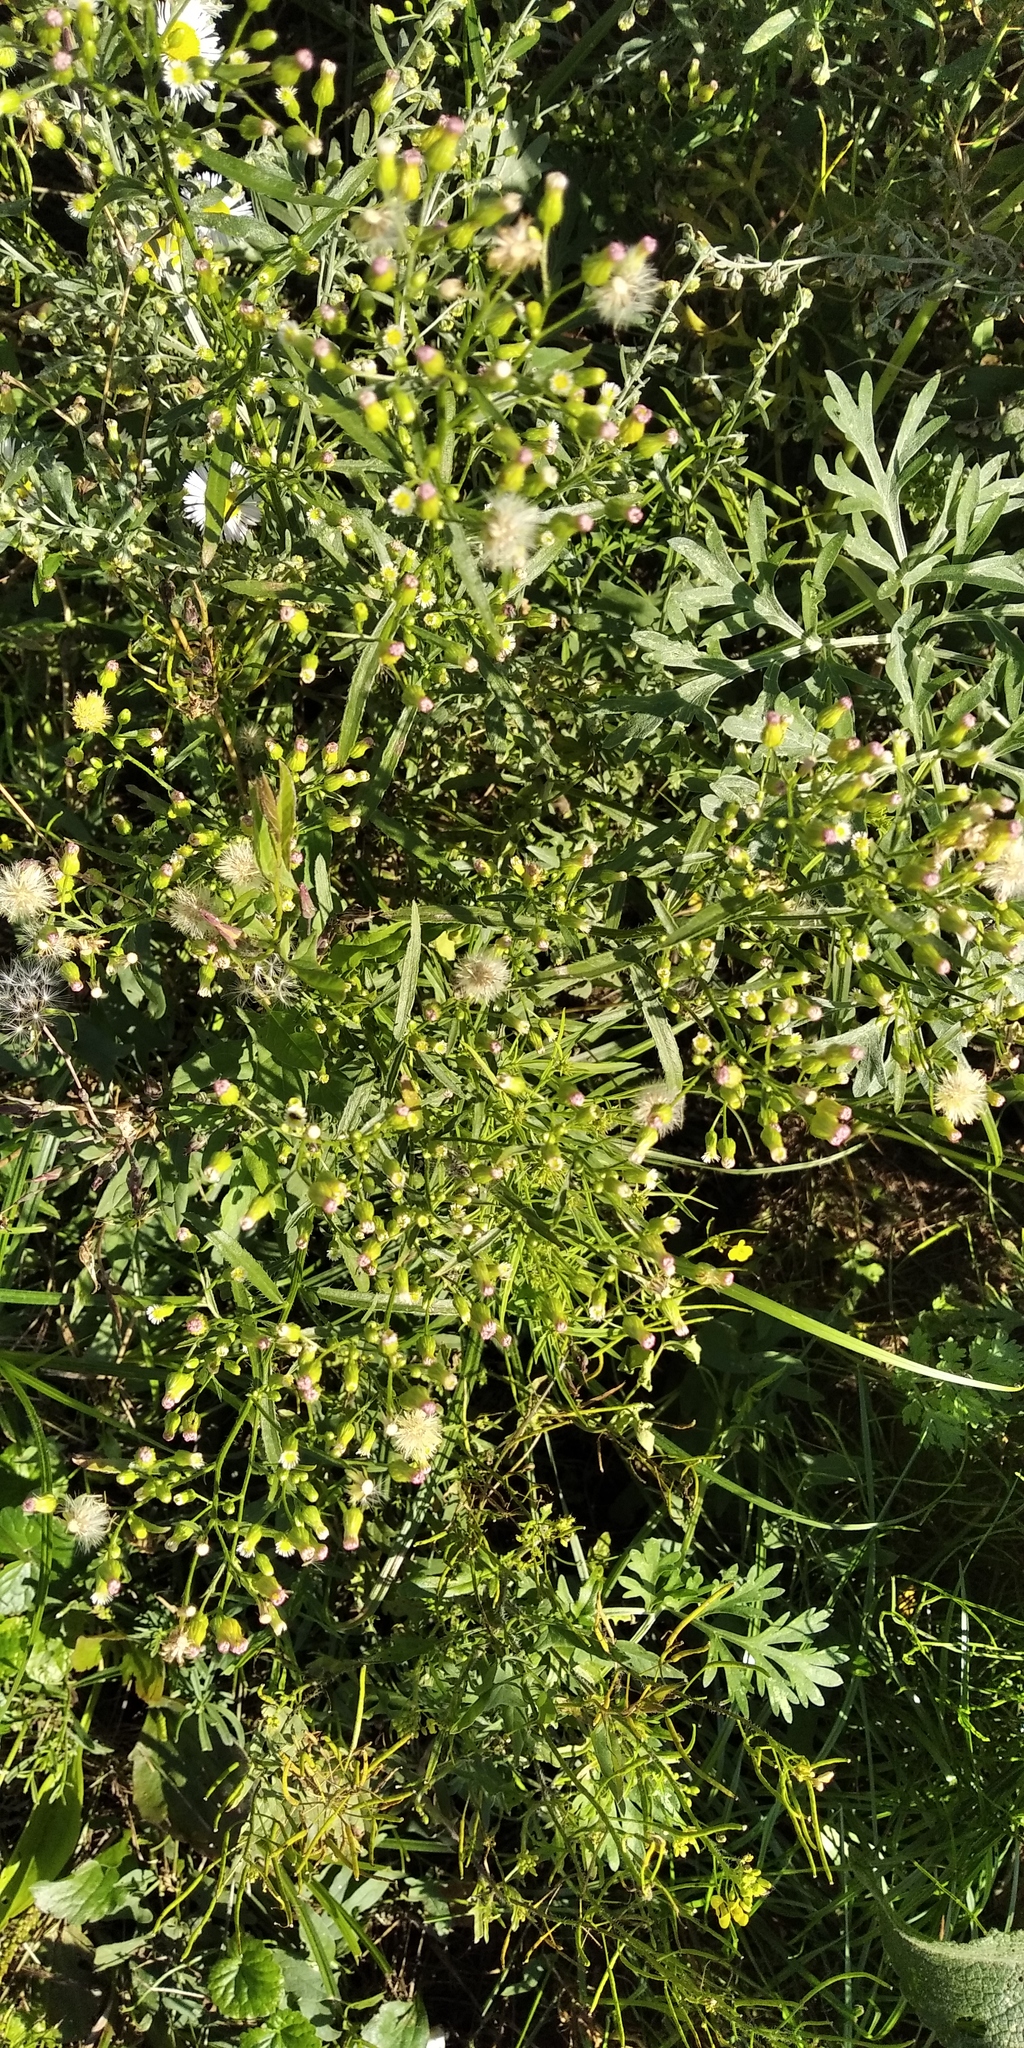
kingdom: Plantae
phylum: Tracheophyta
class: Magnoliopsida
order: Asterales
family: Asteraceae
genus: Erigeron
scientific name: Erigeron canadensis
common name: Canadian fleabane
